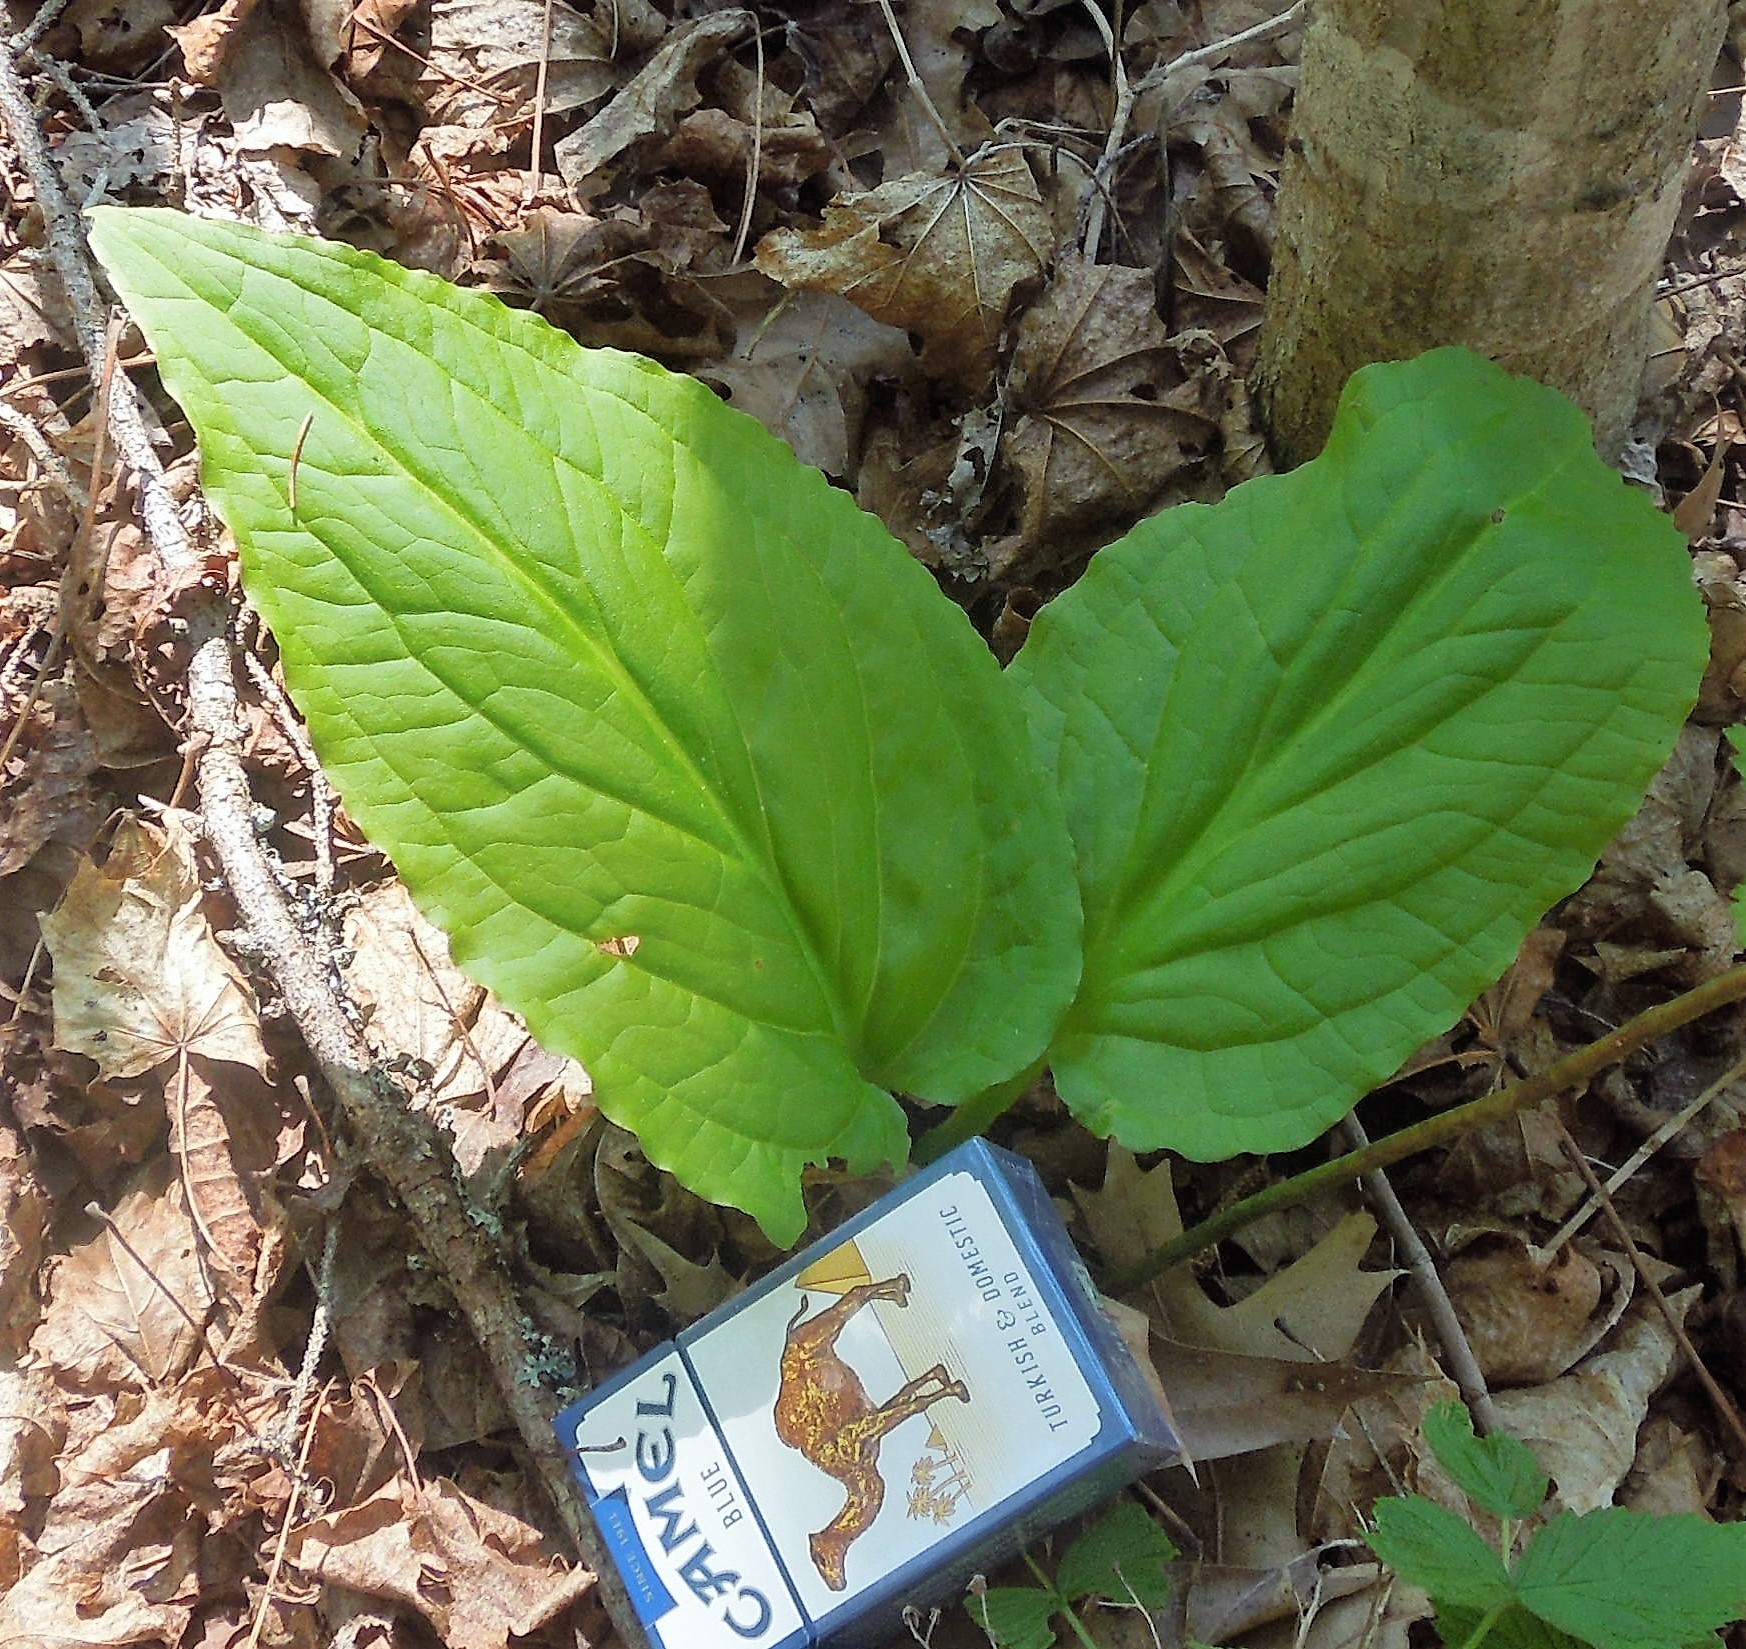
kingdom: Plantae
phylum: Tracheophyta
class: Liliopsida
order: Alismatales
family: Araceae
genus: Symplocarpus
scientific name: Symplocarpus foetidus
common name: Eastern skunk cabbage
